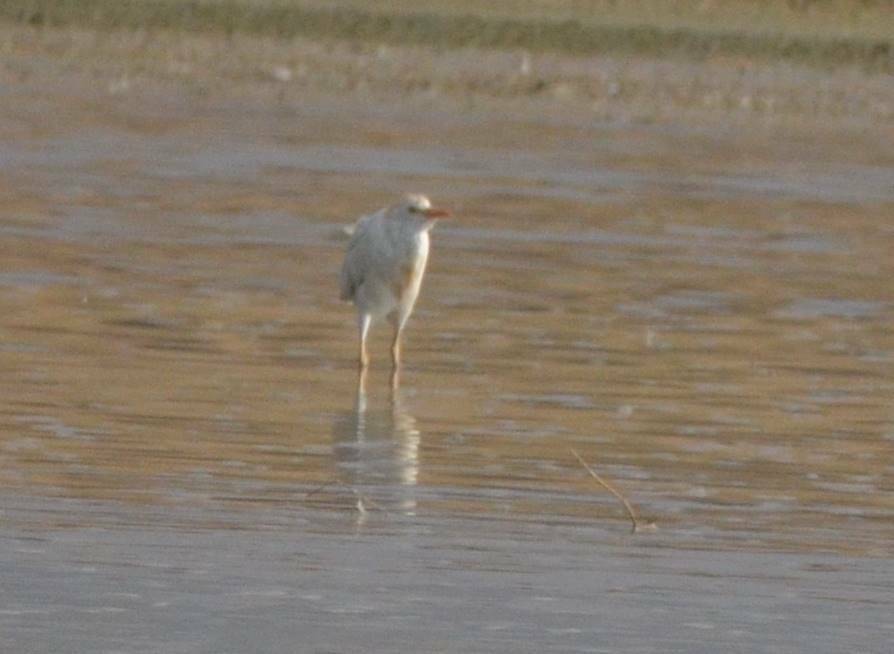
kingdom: Animalia
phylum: Chordata
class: Aves
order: Pelecaniformes
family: Ardeidae
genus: Bubulcus
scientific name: Bubulcus ibis
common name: Cattle egret
